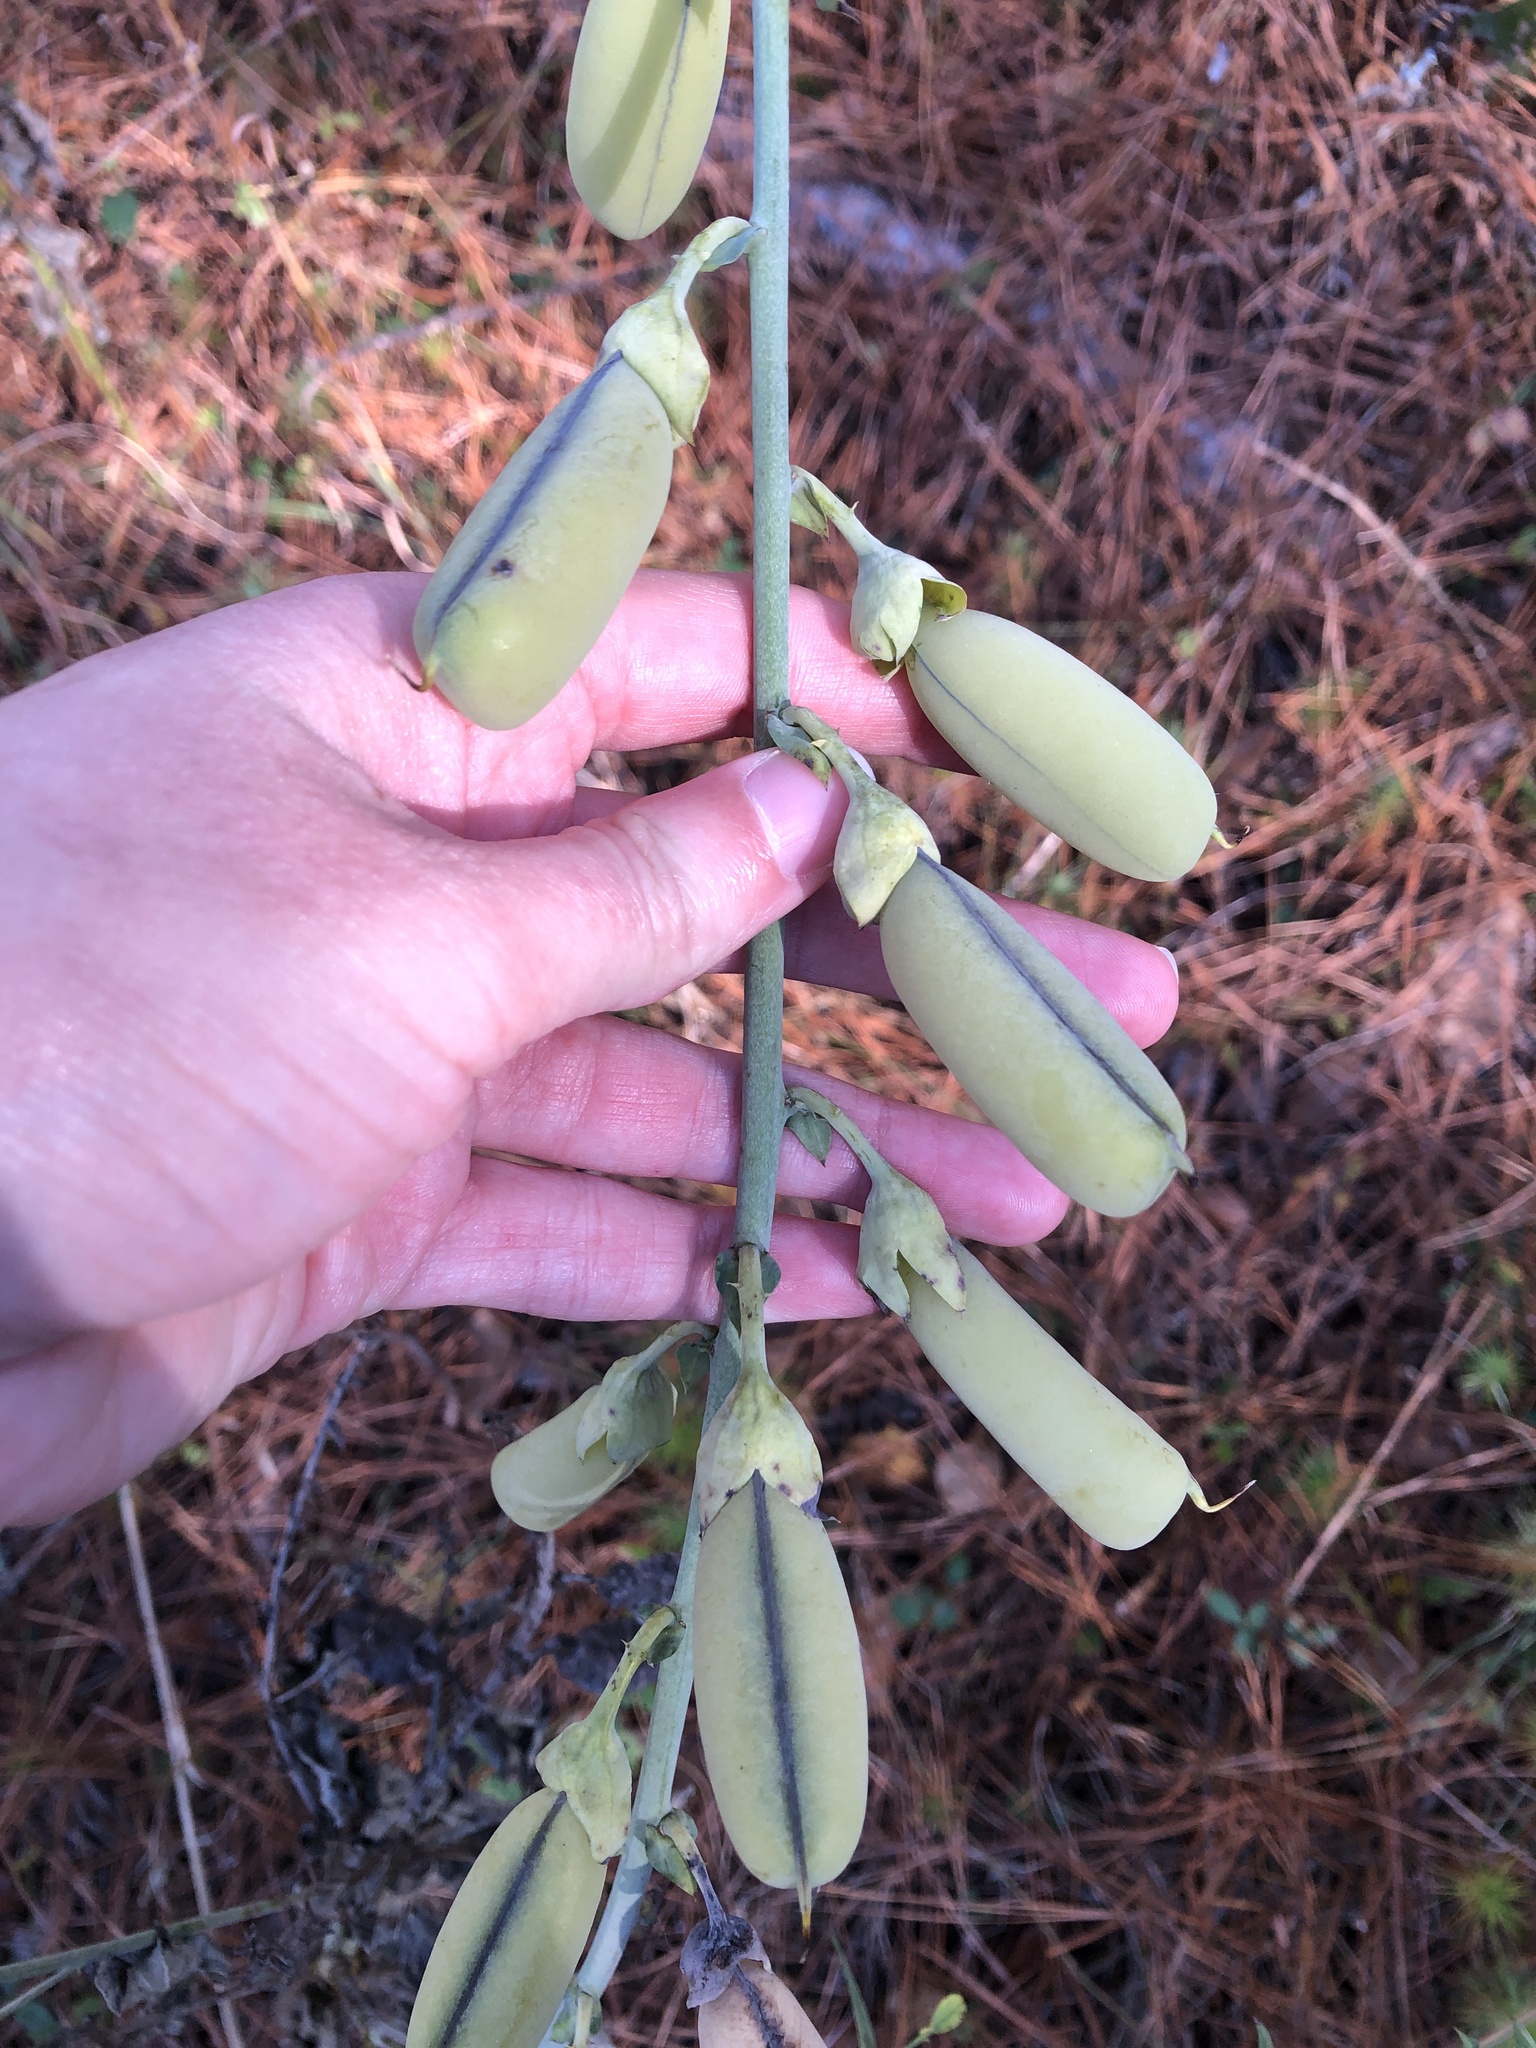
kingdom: Plantae
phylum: Tracheophyta
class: Magnoliopsida
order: Fabales
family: Fabaceae
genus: Crotalaria
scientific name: Crotalaria spectabilis
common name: Showy rattlebox
